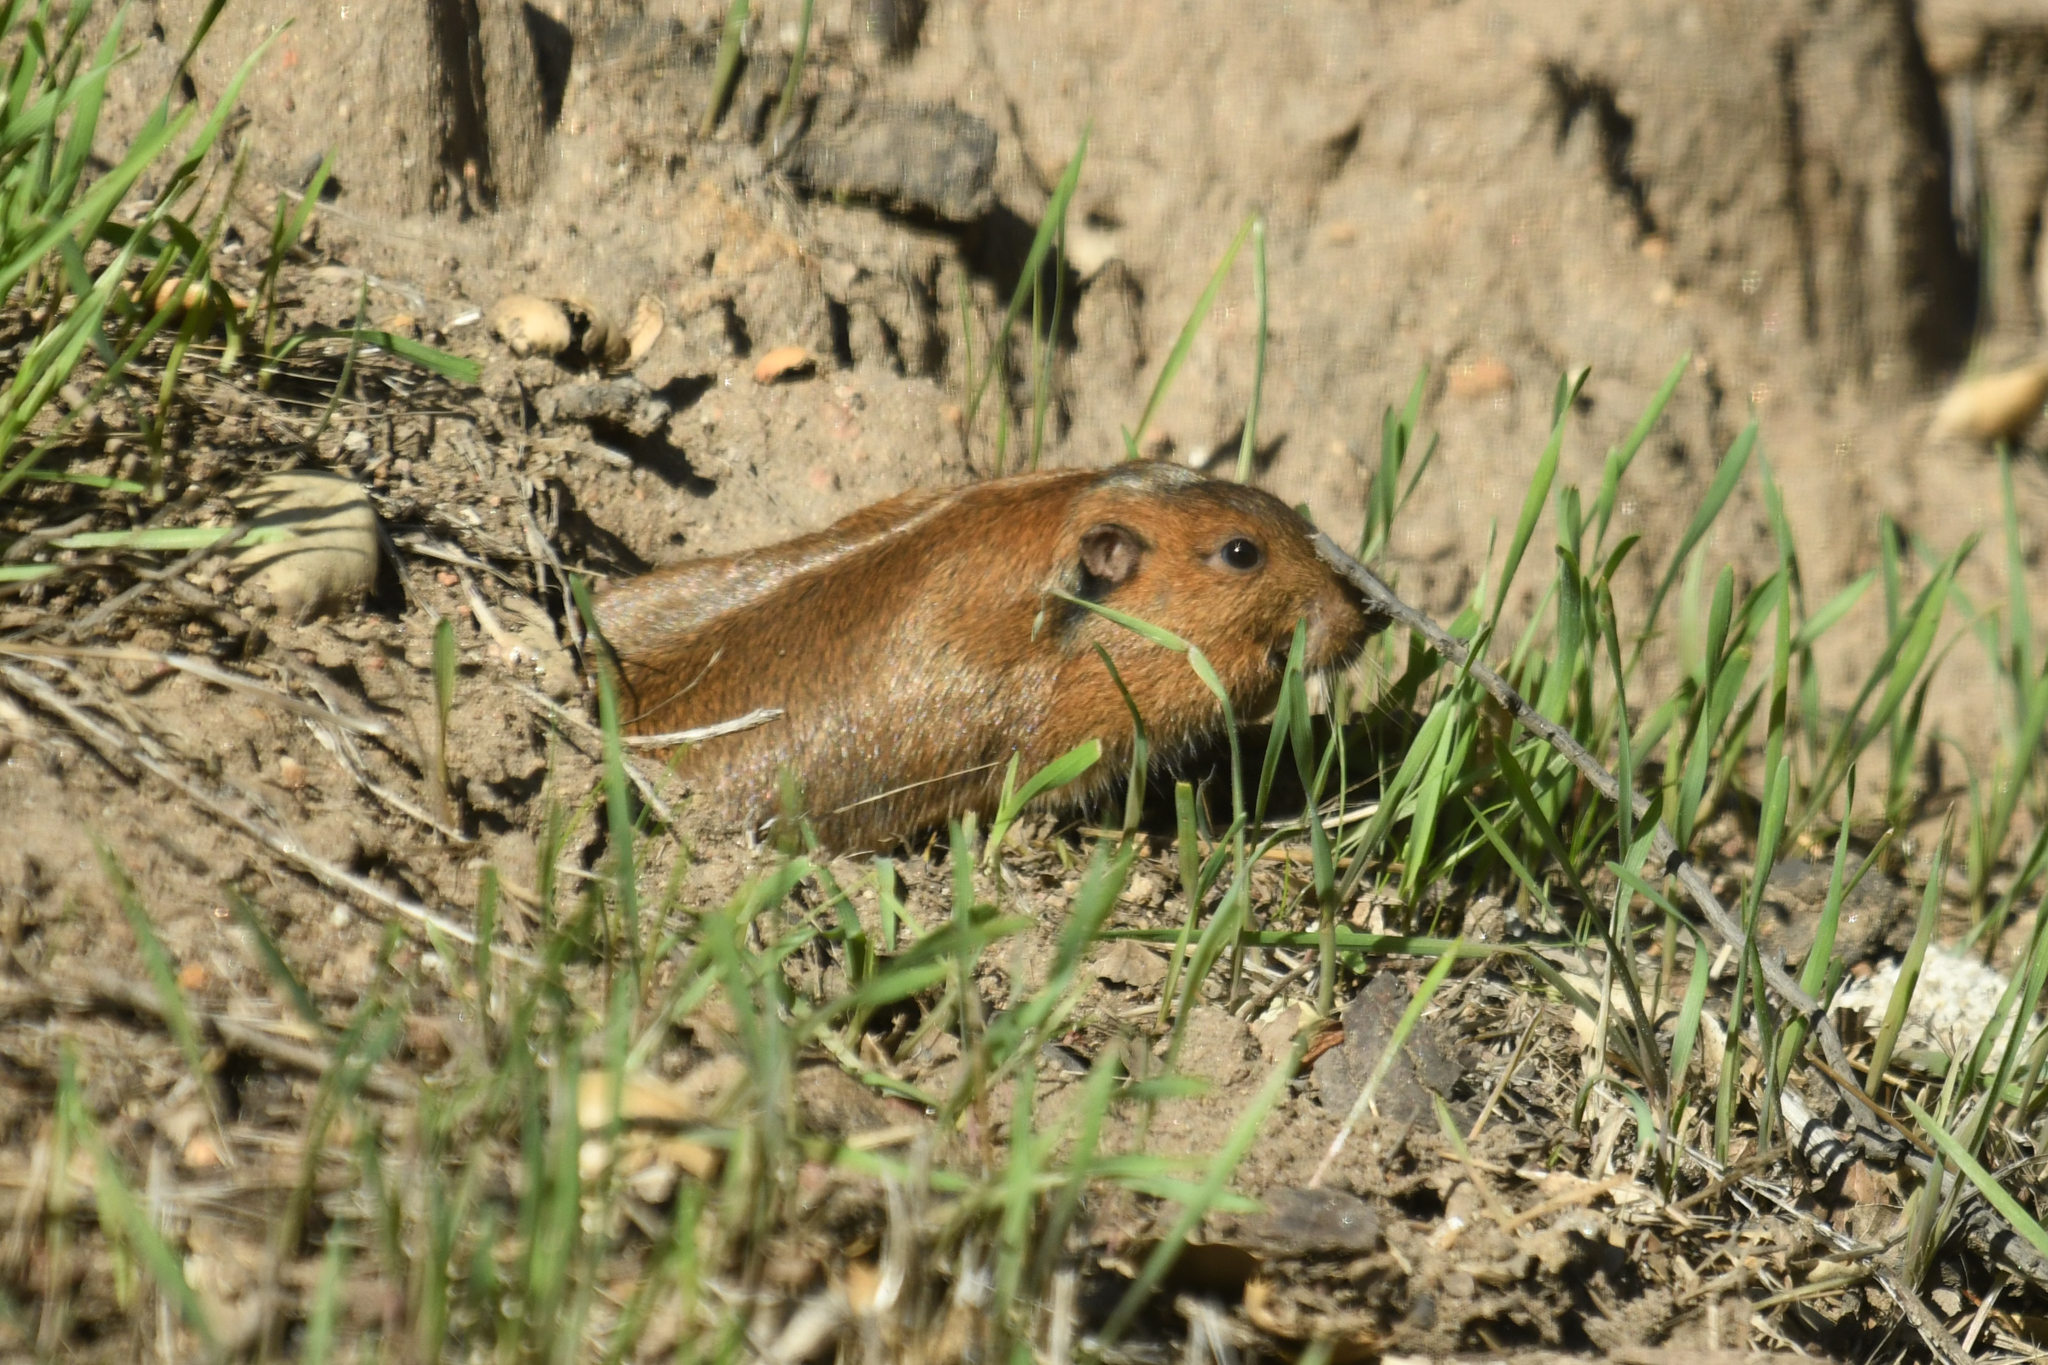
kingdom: Animalia
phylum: Chordata
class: Mammalia
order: Rodentia
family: Geomyidae
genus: Thomomys
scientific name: Thomomys bottae
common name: Botta's pocket gopher
